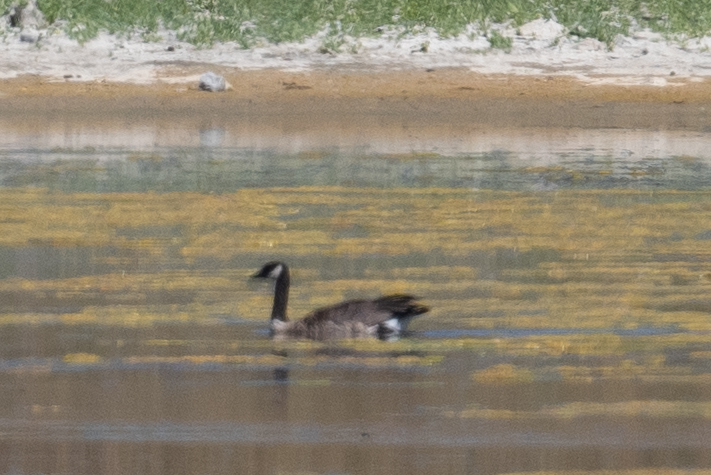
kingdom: Animalia
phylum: Chordata
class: Aves
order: Anseriformes
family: Anatidae
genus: Branta
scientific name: Branta canadensis
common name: Canada goose
